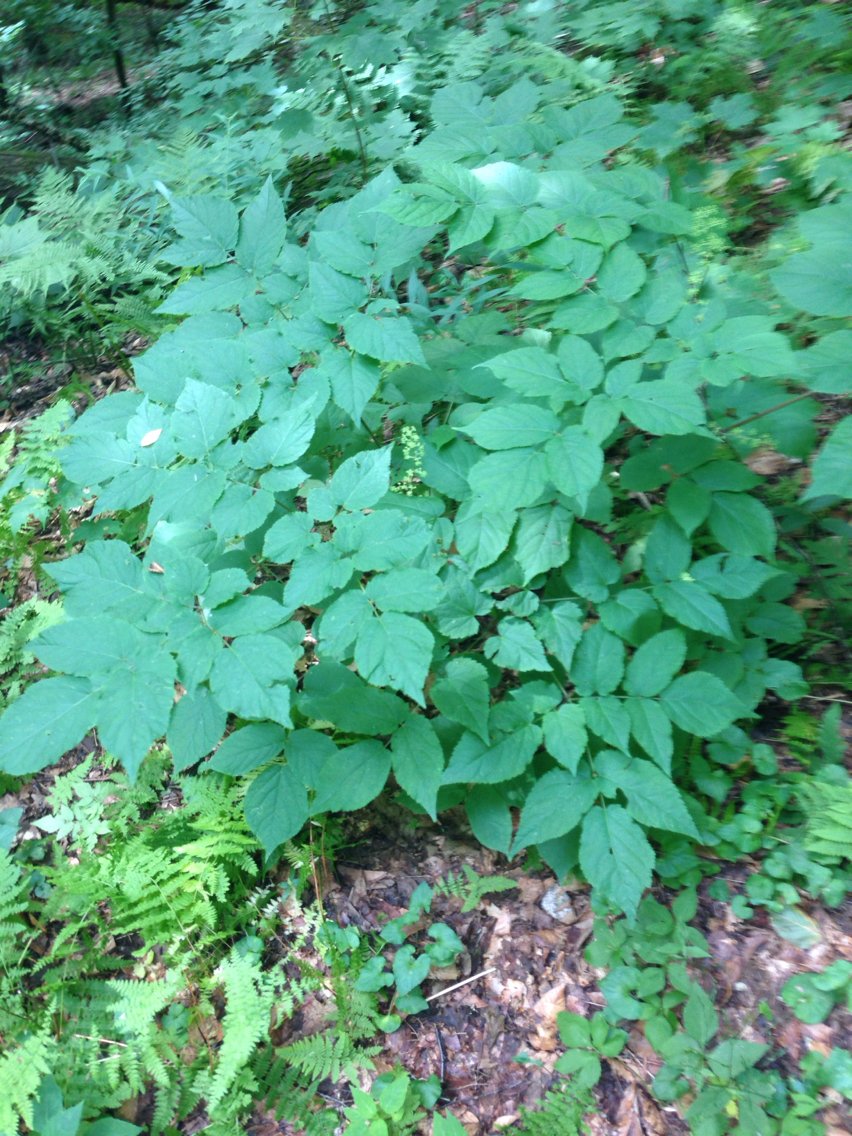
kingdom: Plantae
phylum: Tracheophyta
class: Magnoliopsida
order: Apiales
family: Araliaceae
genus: Aralia
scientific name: Aralia racemosa
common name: American-spikenard
